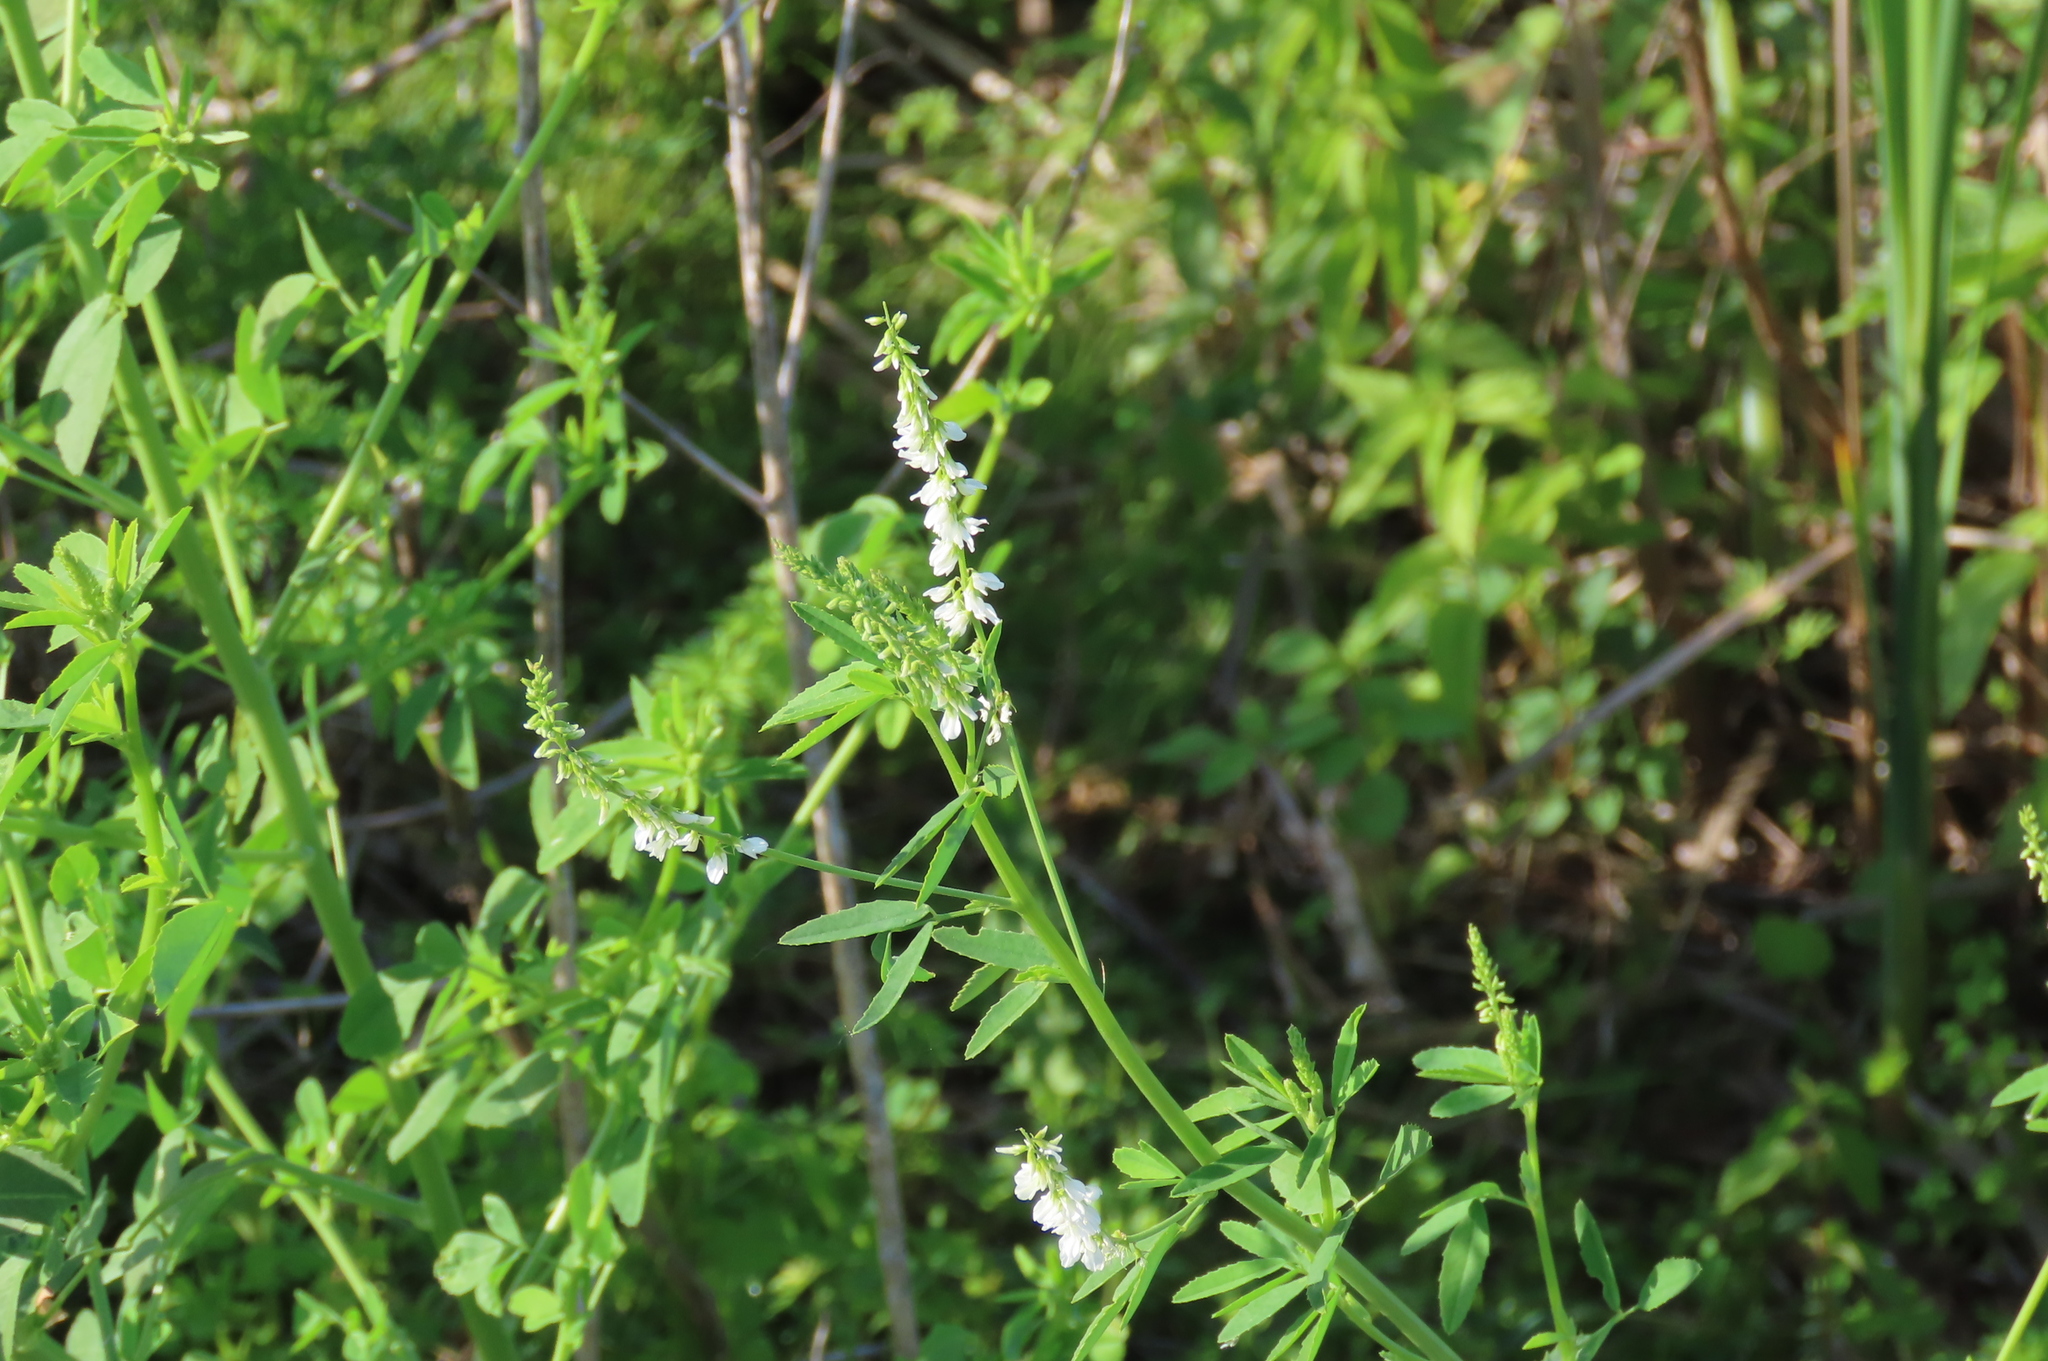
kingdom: Plantae
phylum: Tracheophyta
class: Magnoliopsida
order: Fabales
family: Fabaceae
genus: Melilotus
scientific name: Melilotus albus
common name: White melilot
